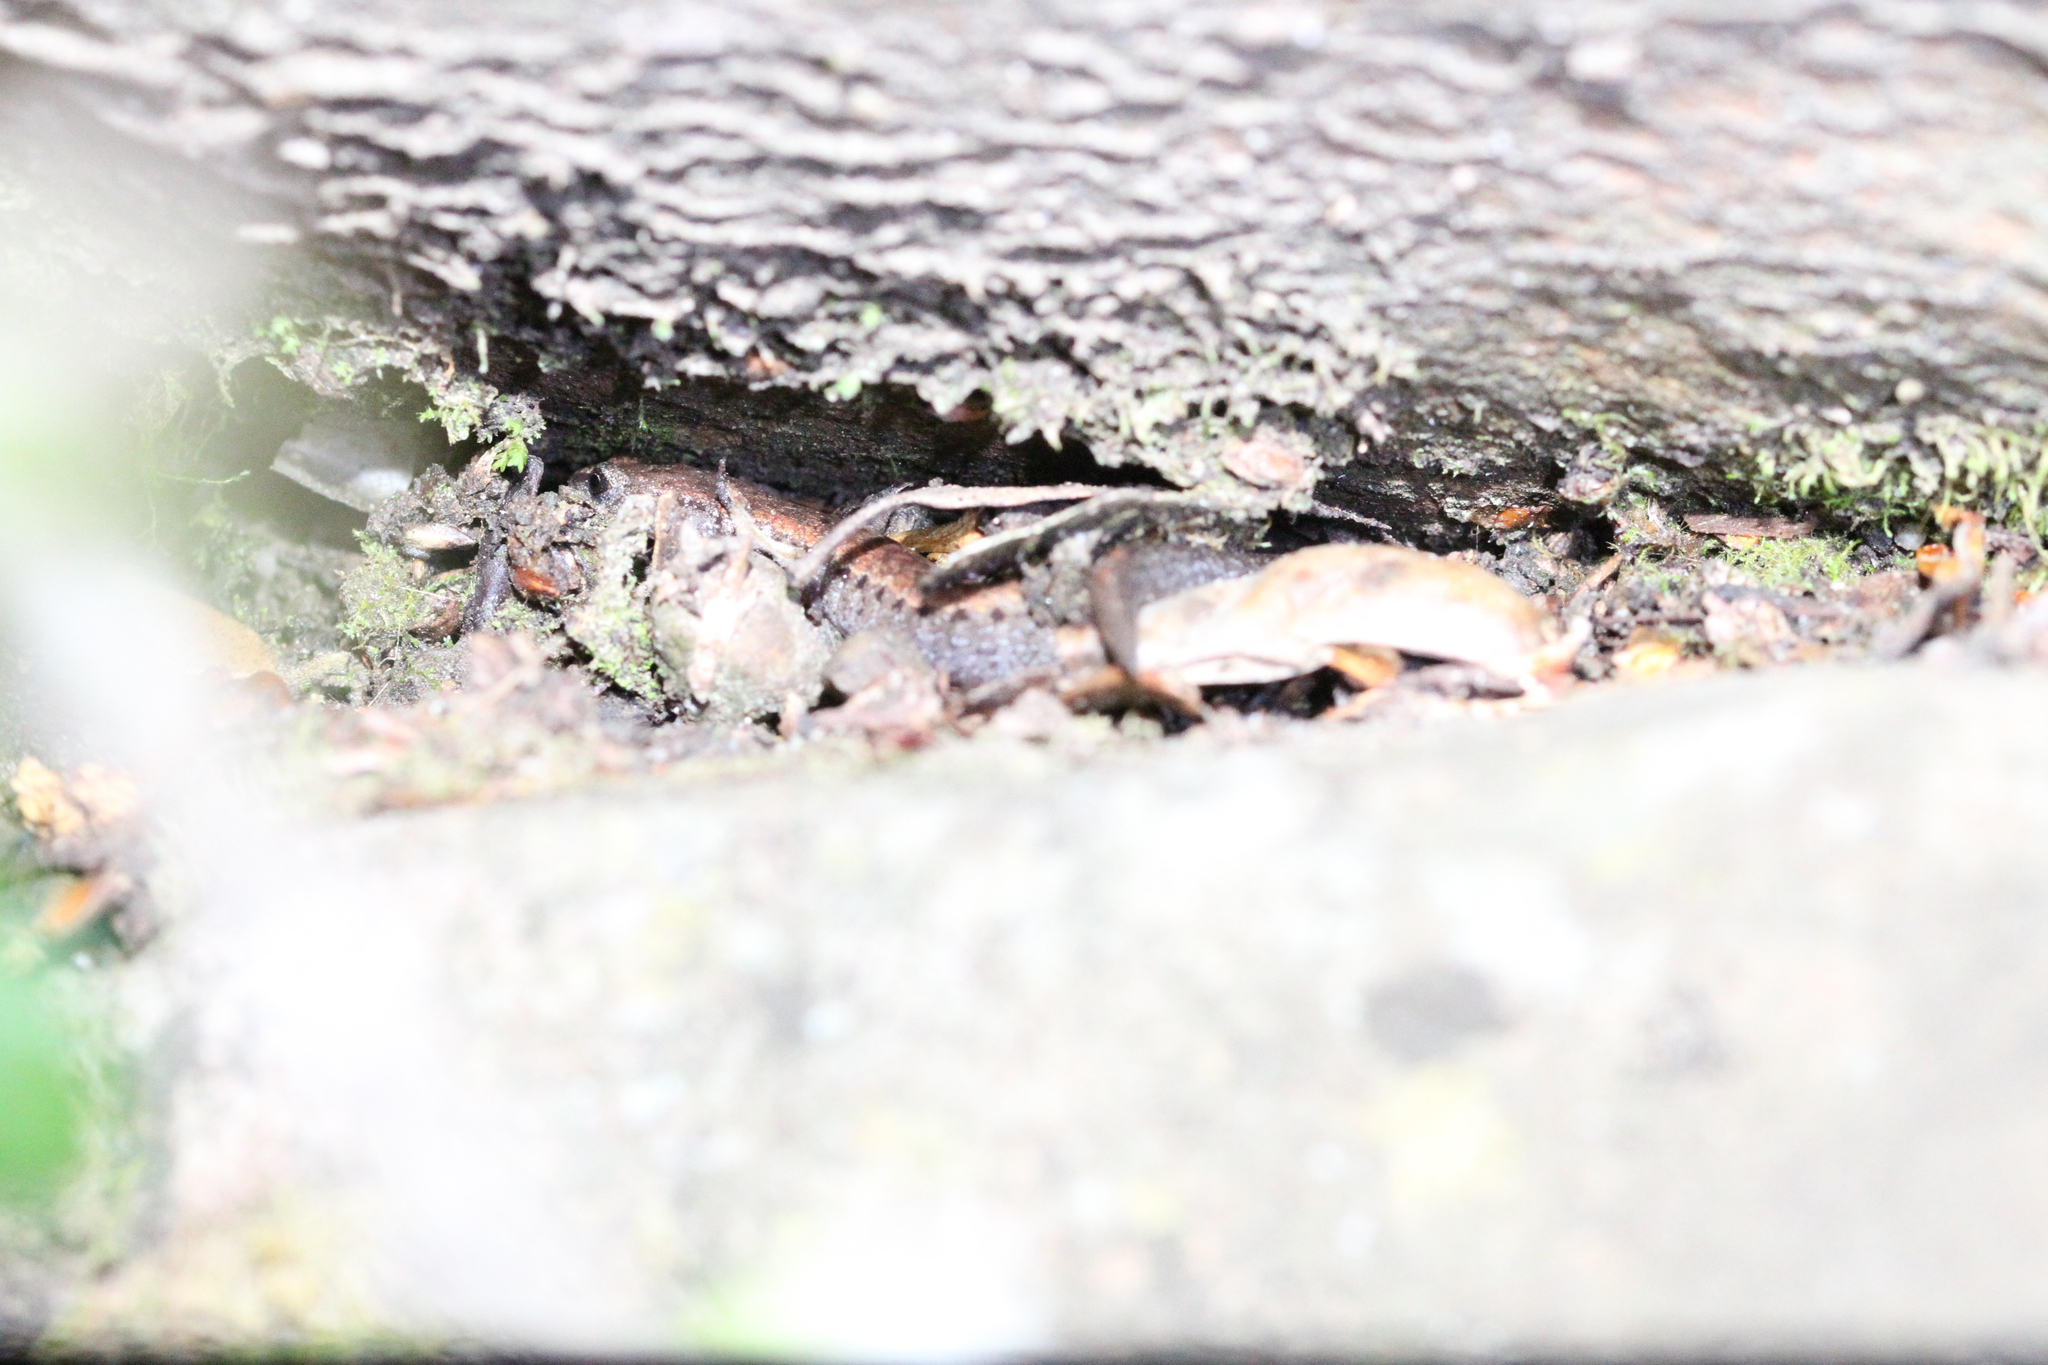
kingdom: Animalia
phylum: Chordata
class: Amphibia
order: Caudata
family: Plethodontidae
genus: Batrachoseps
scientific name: Batrachoseps attenuatus
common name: California slender salamander
